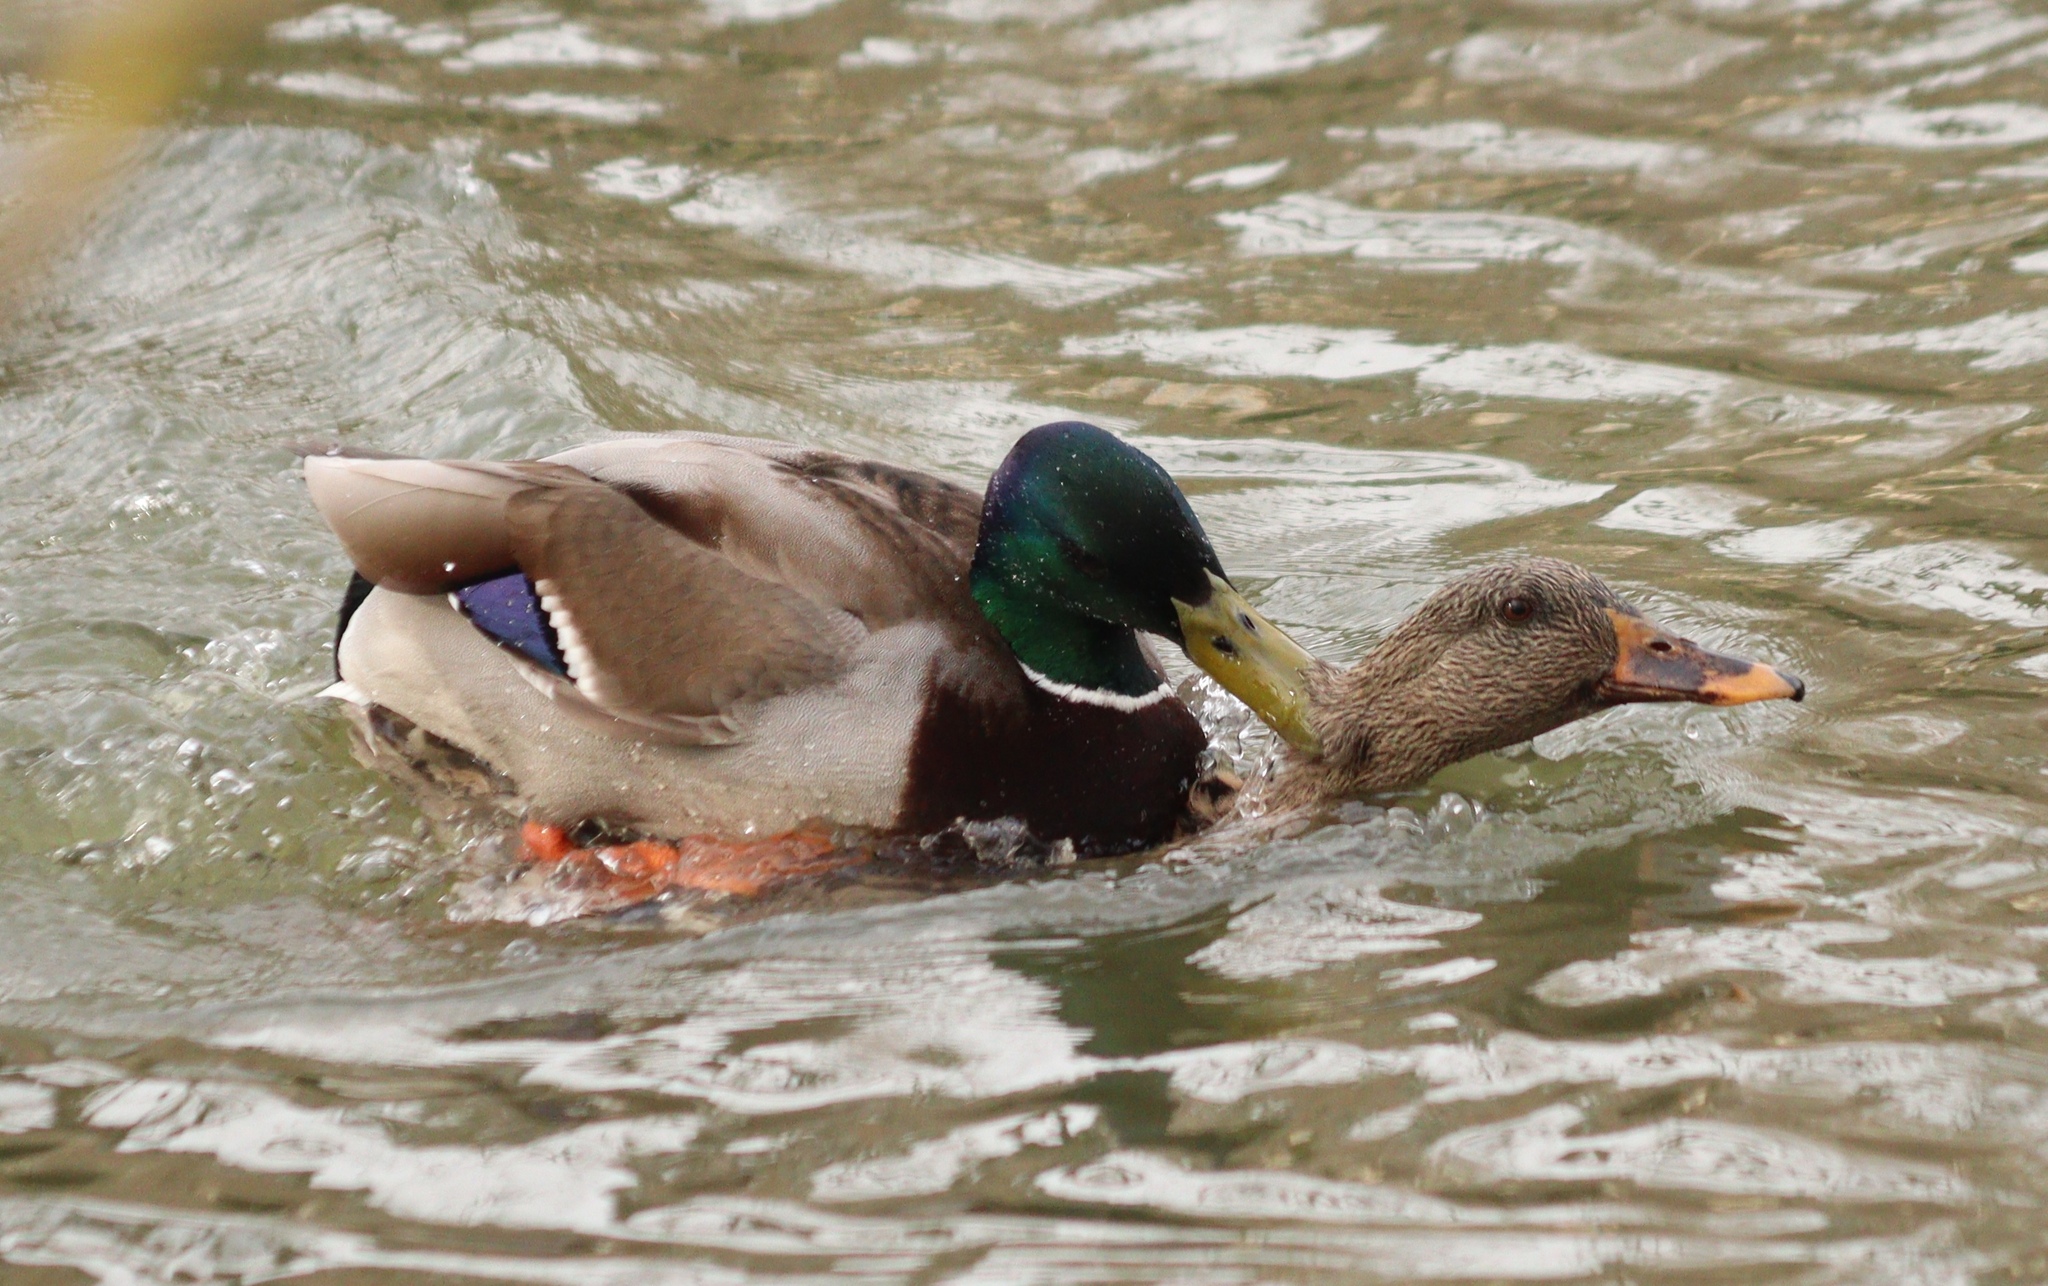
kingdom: Animalia
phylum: Chordata
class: Aves
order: Anseriformes
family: Anatidae
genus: Anas
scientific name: Anas platyrhynchos
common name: Mallard
